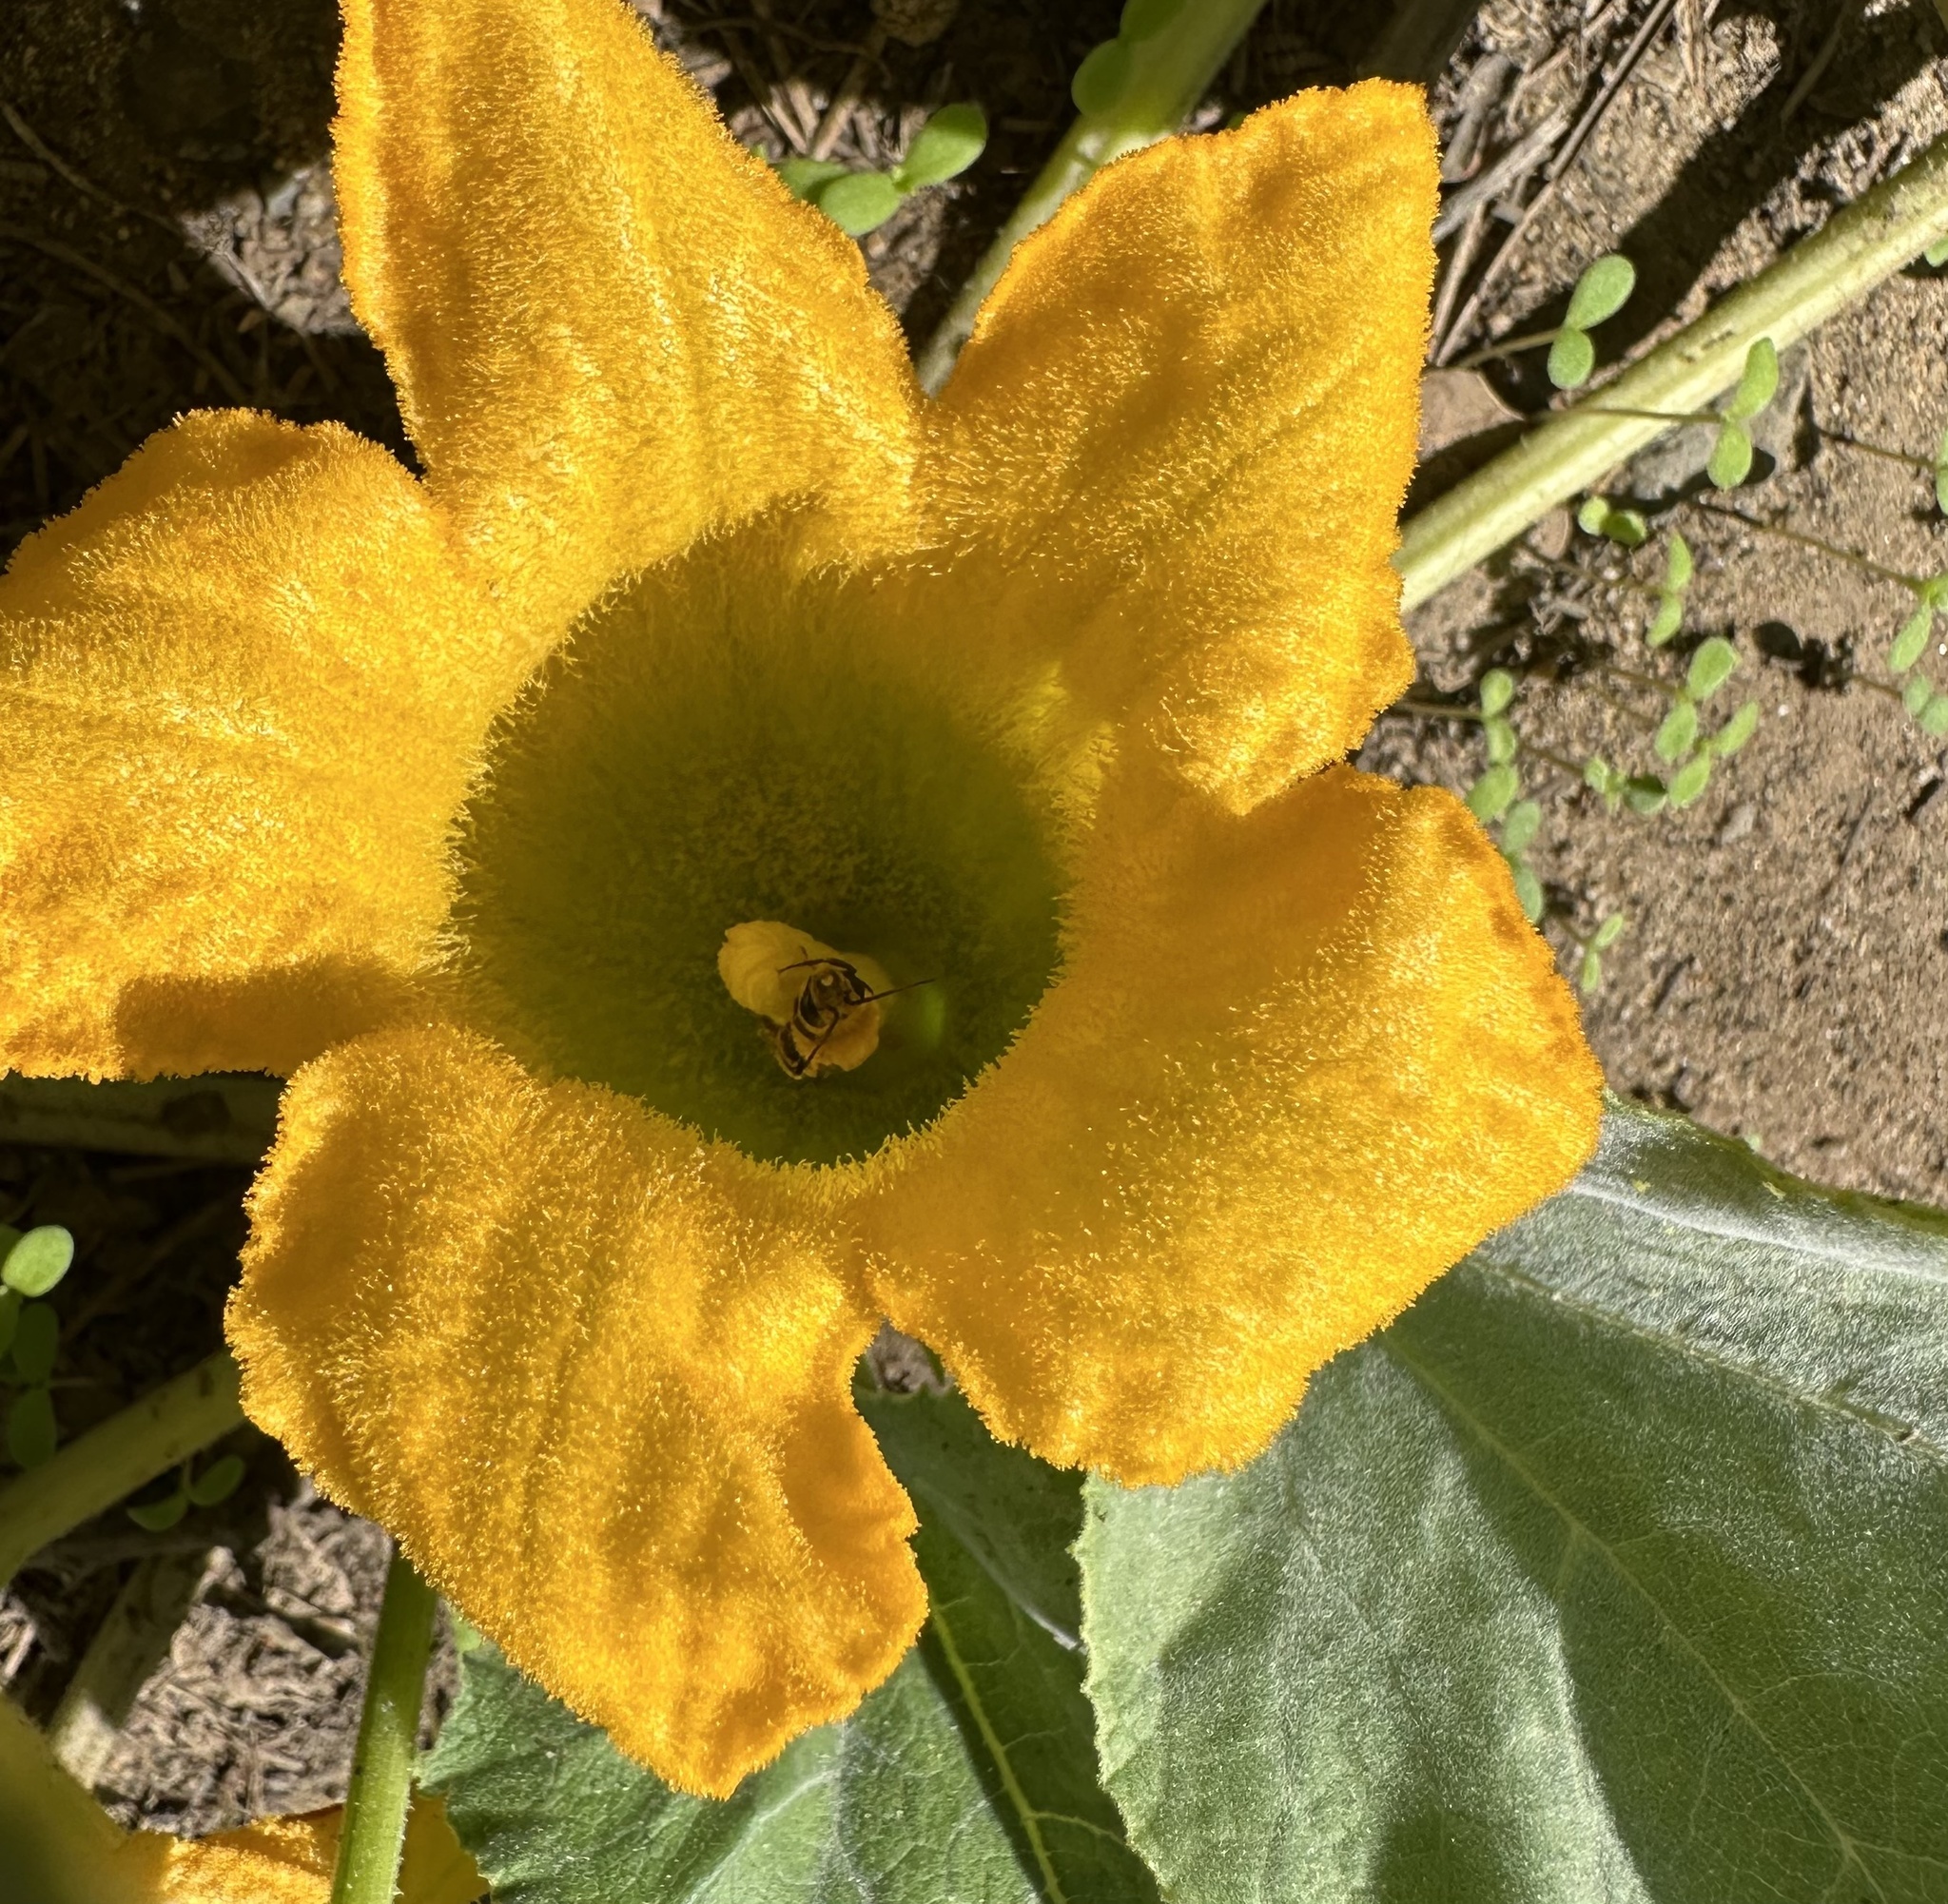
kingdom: Animalia
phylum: Arthropoda
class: Insecta
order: Hymenoptera
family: Apidae
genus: Peponapis
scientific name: Peponapis pruinosa
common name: Pruinose squash bee
